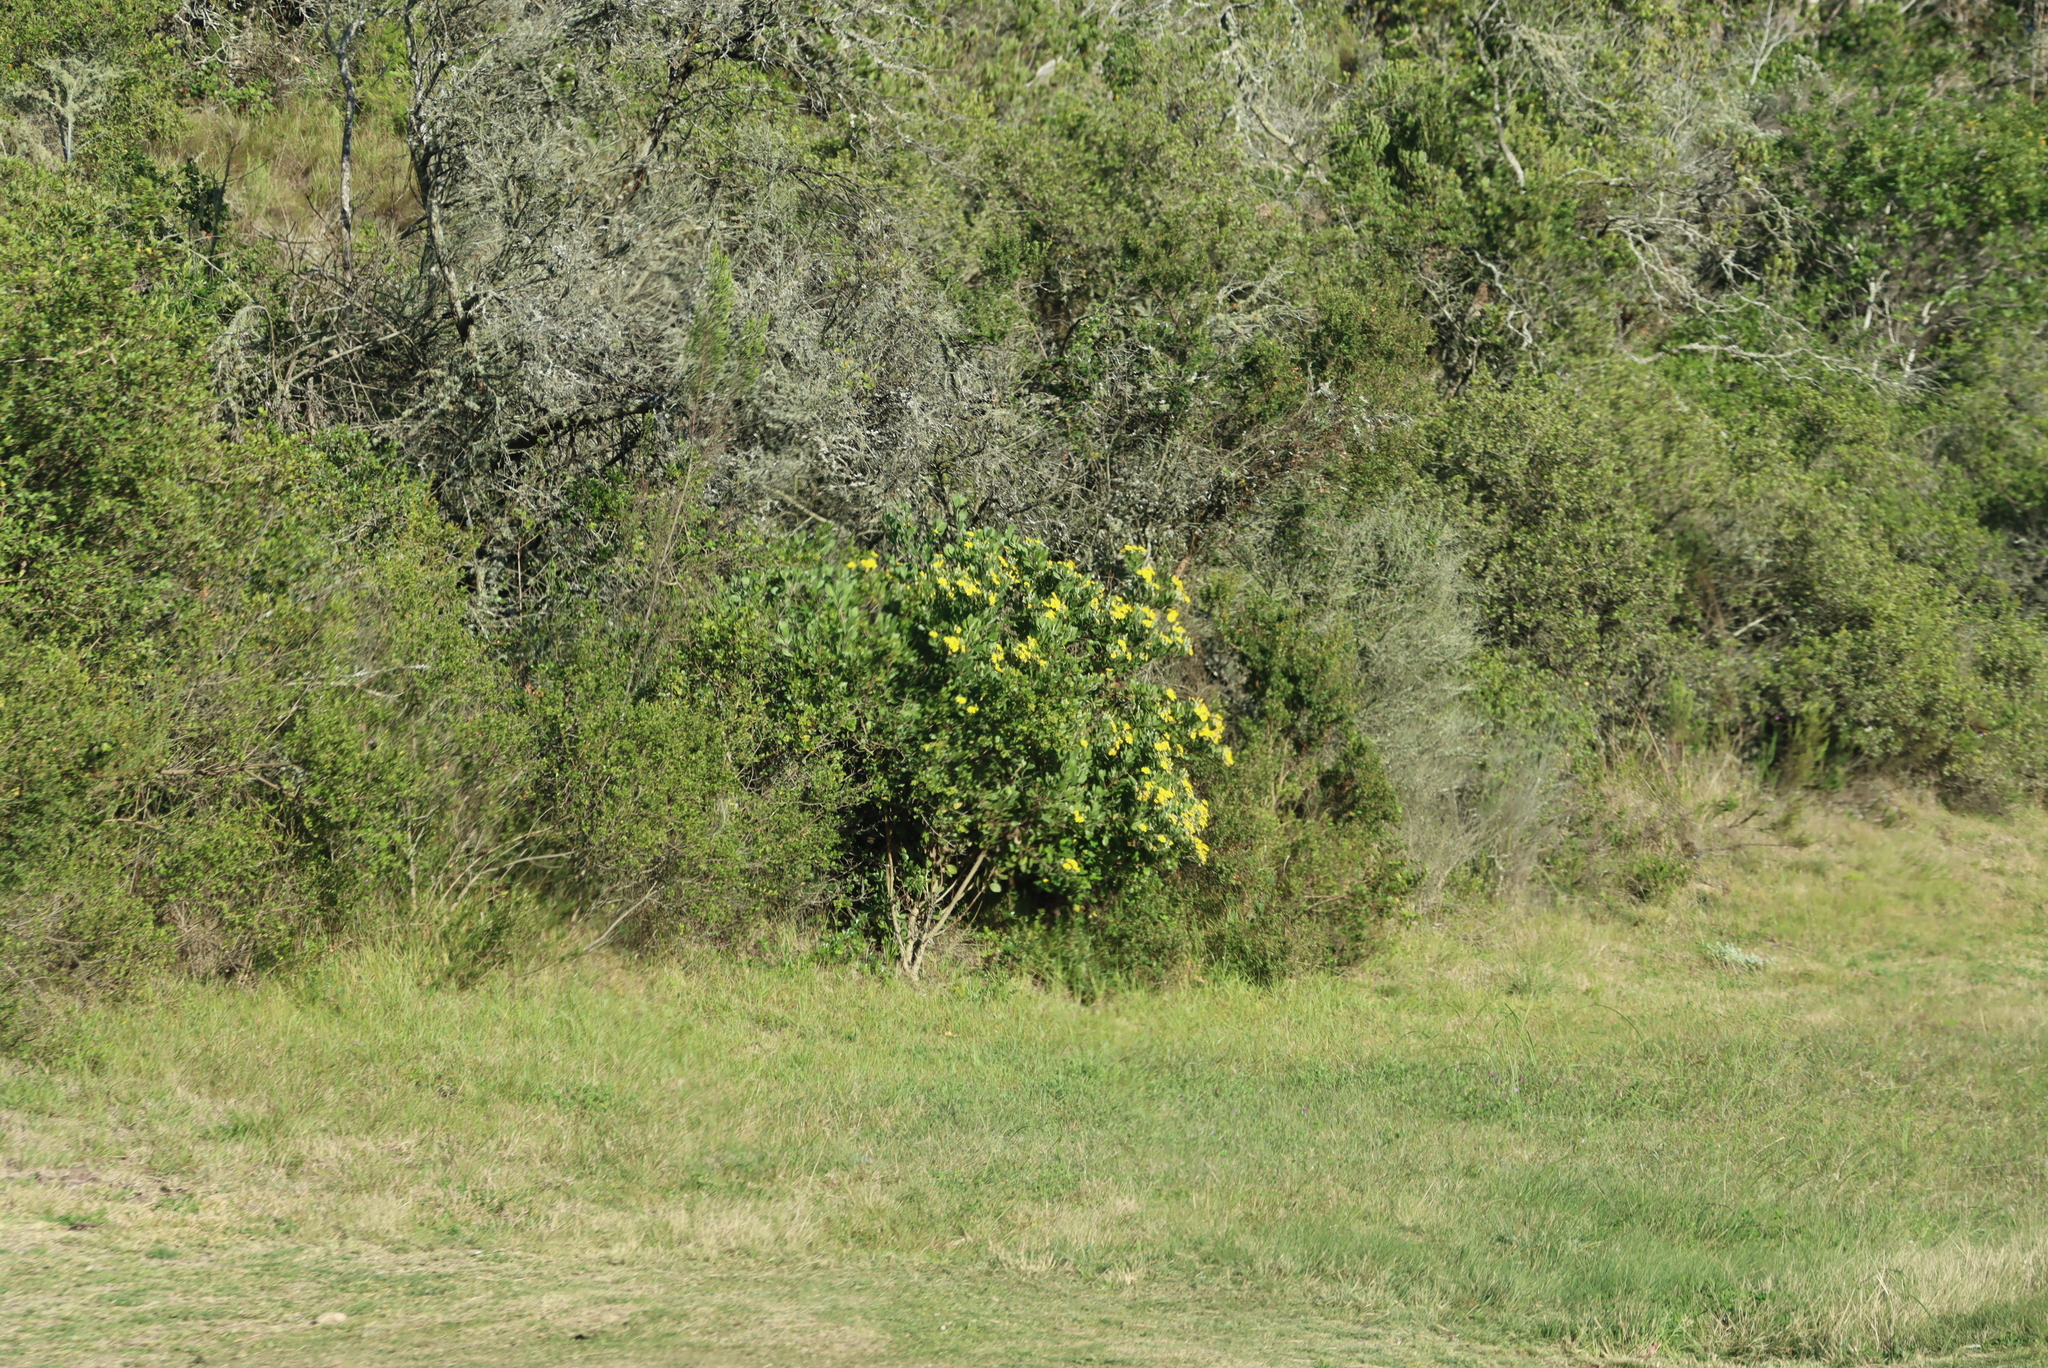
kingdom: Plantae
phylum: Tracheophyta
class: Magnoliopsida
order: Asterales
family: Asteraceae
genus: Osteospermum
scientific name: Osteospermum moniliferum
